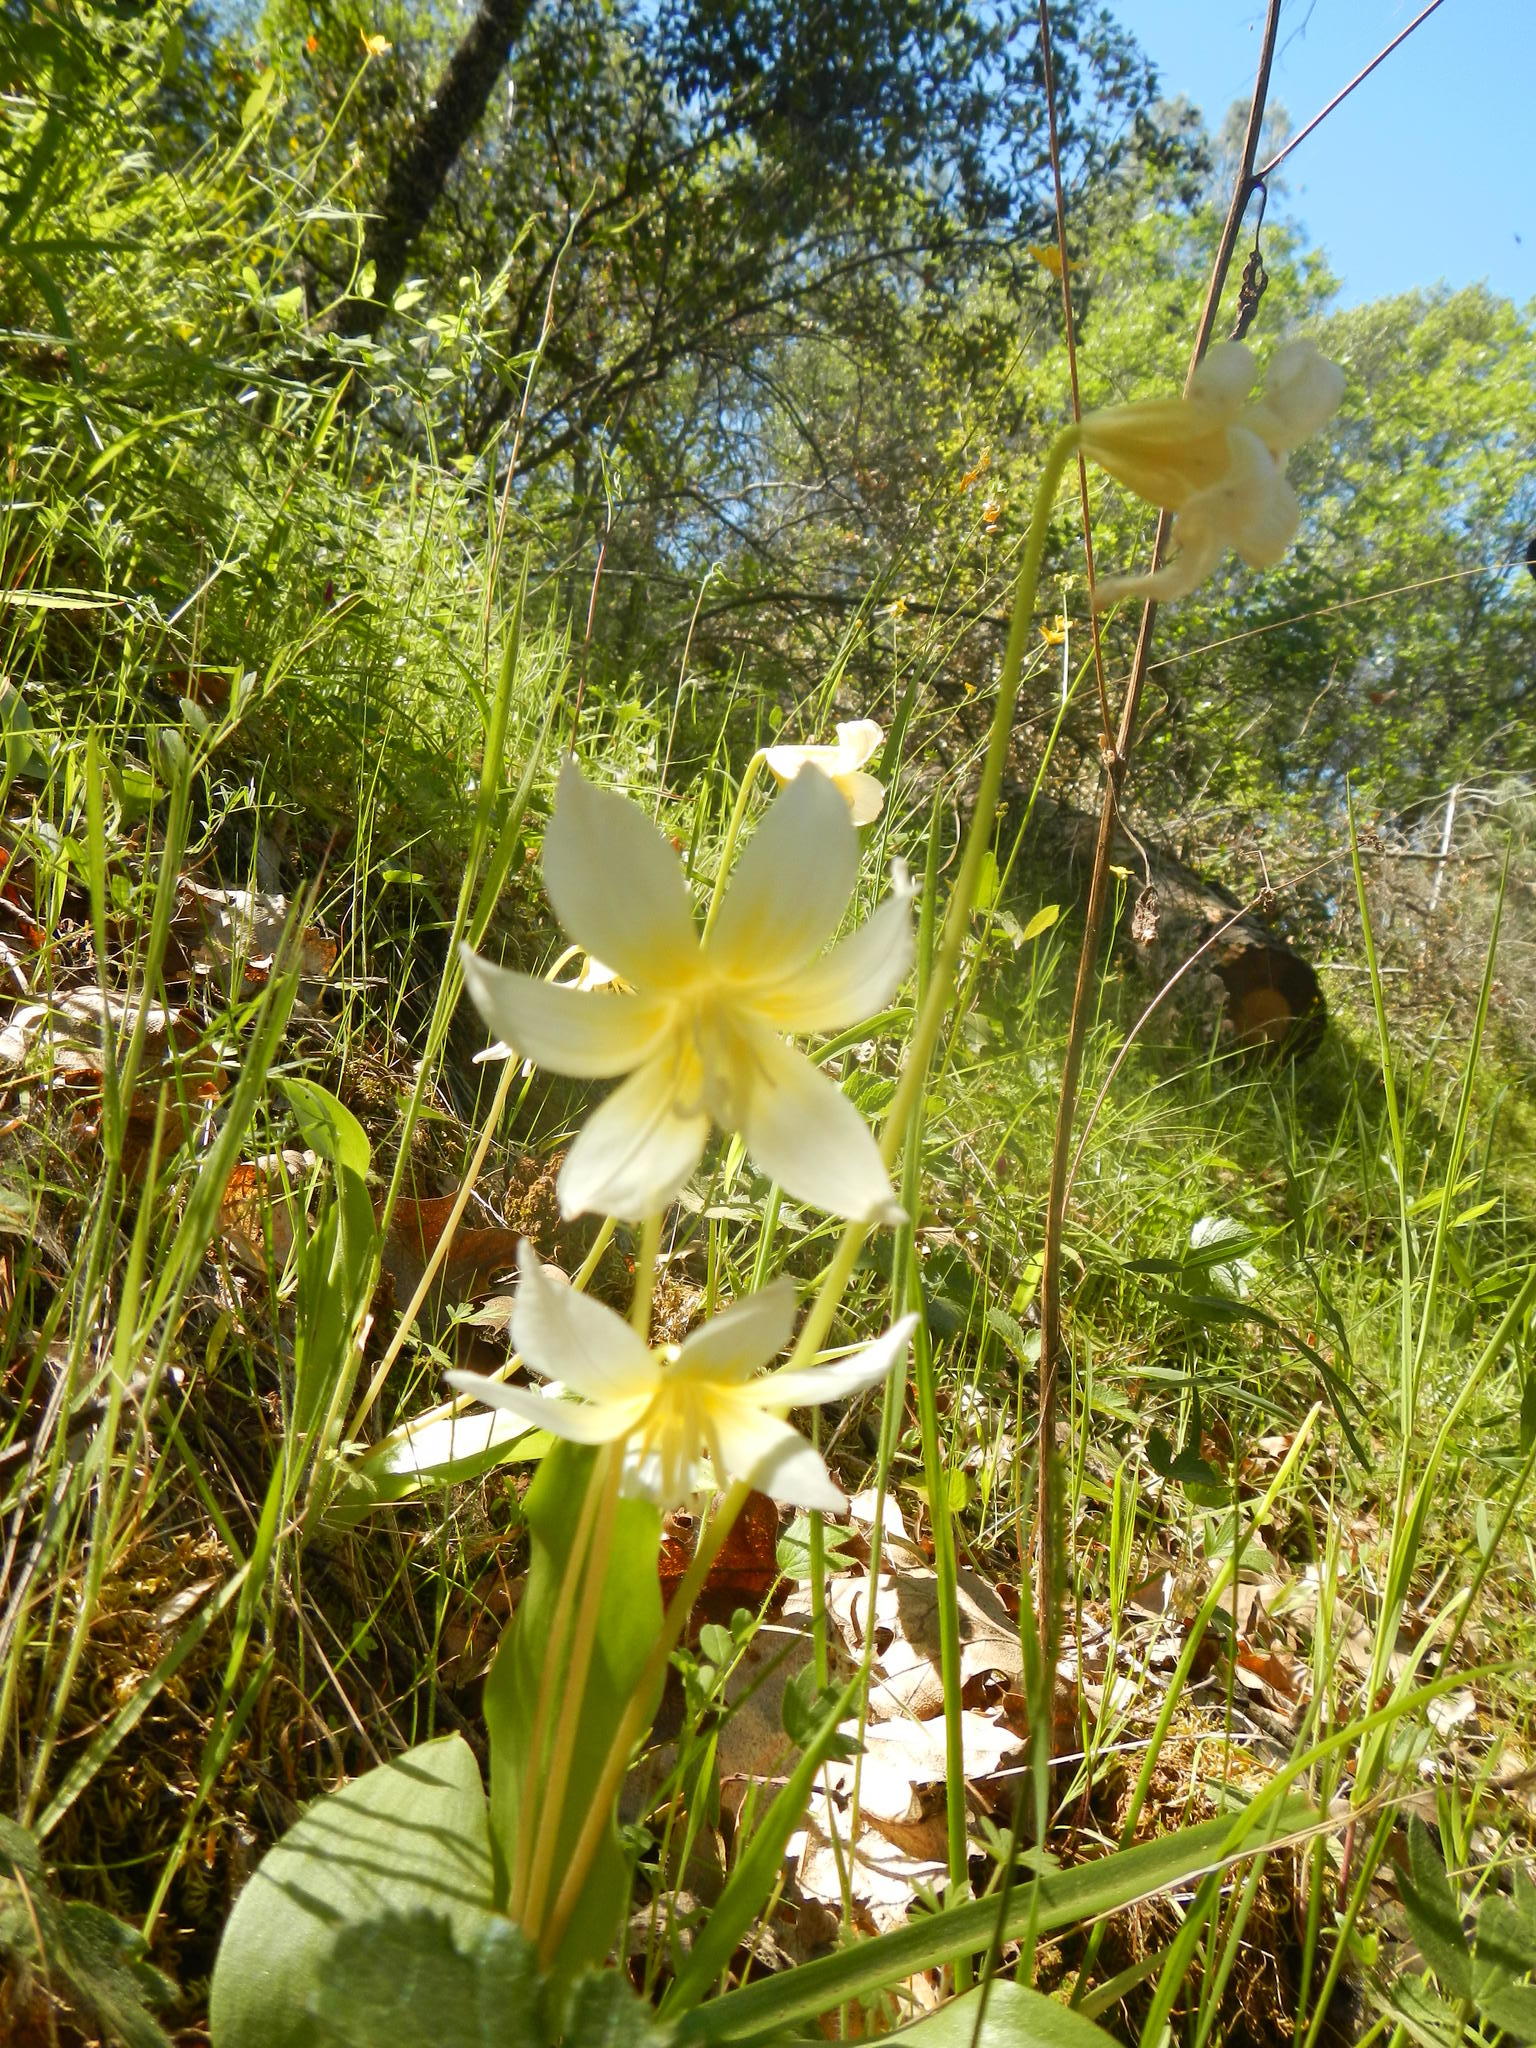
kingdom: Plantae
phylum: Tracheophyta
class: Liliopsida
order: Liliales
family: Liliaceae
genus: Erythronium
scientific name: Erythronium multiscapideum
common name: Sierra foothills fawn-lily
